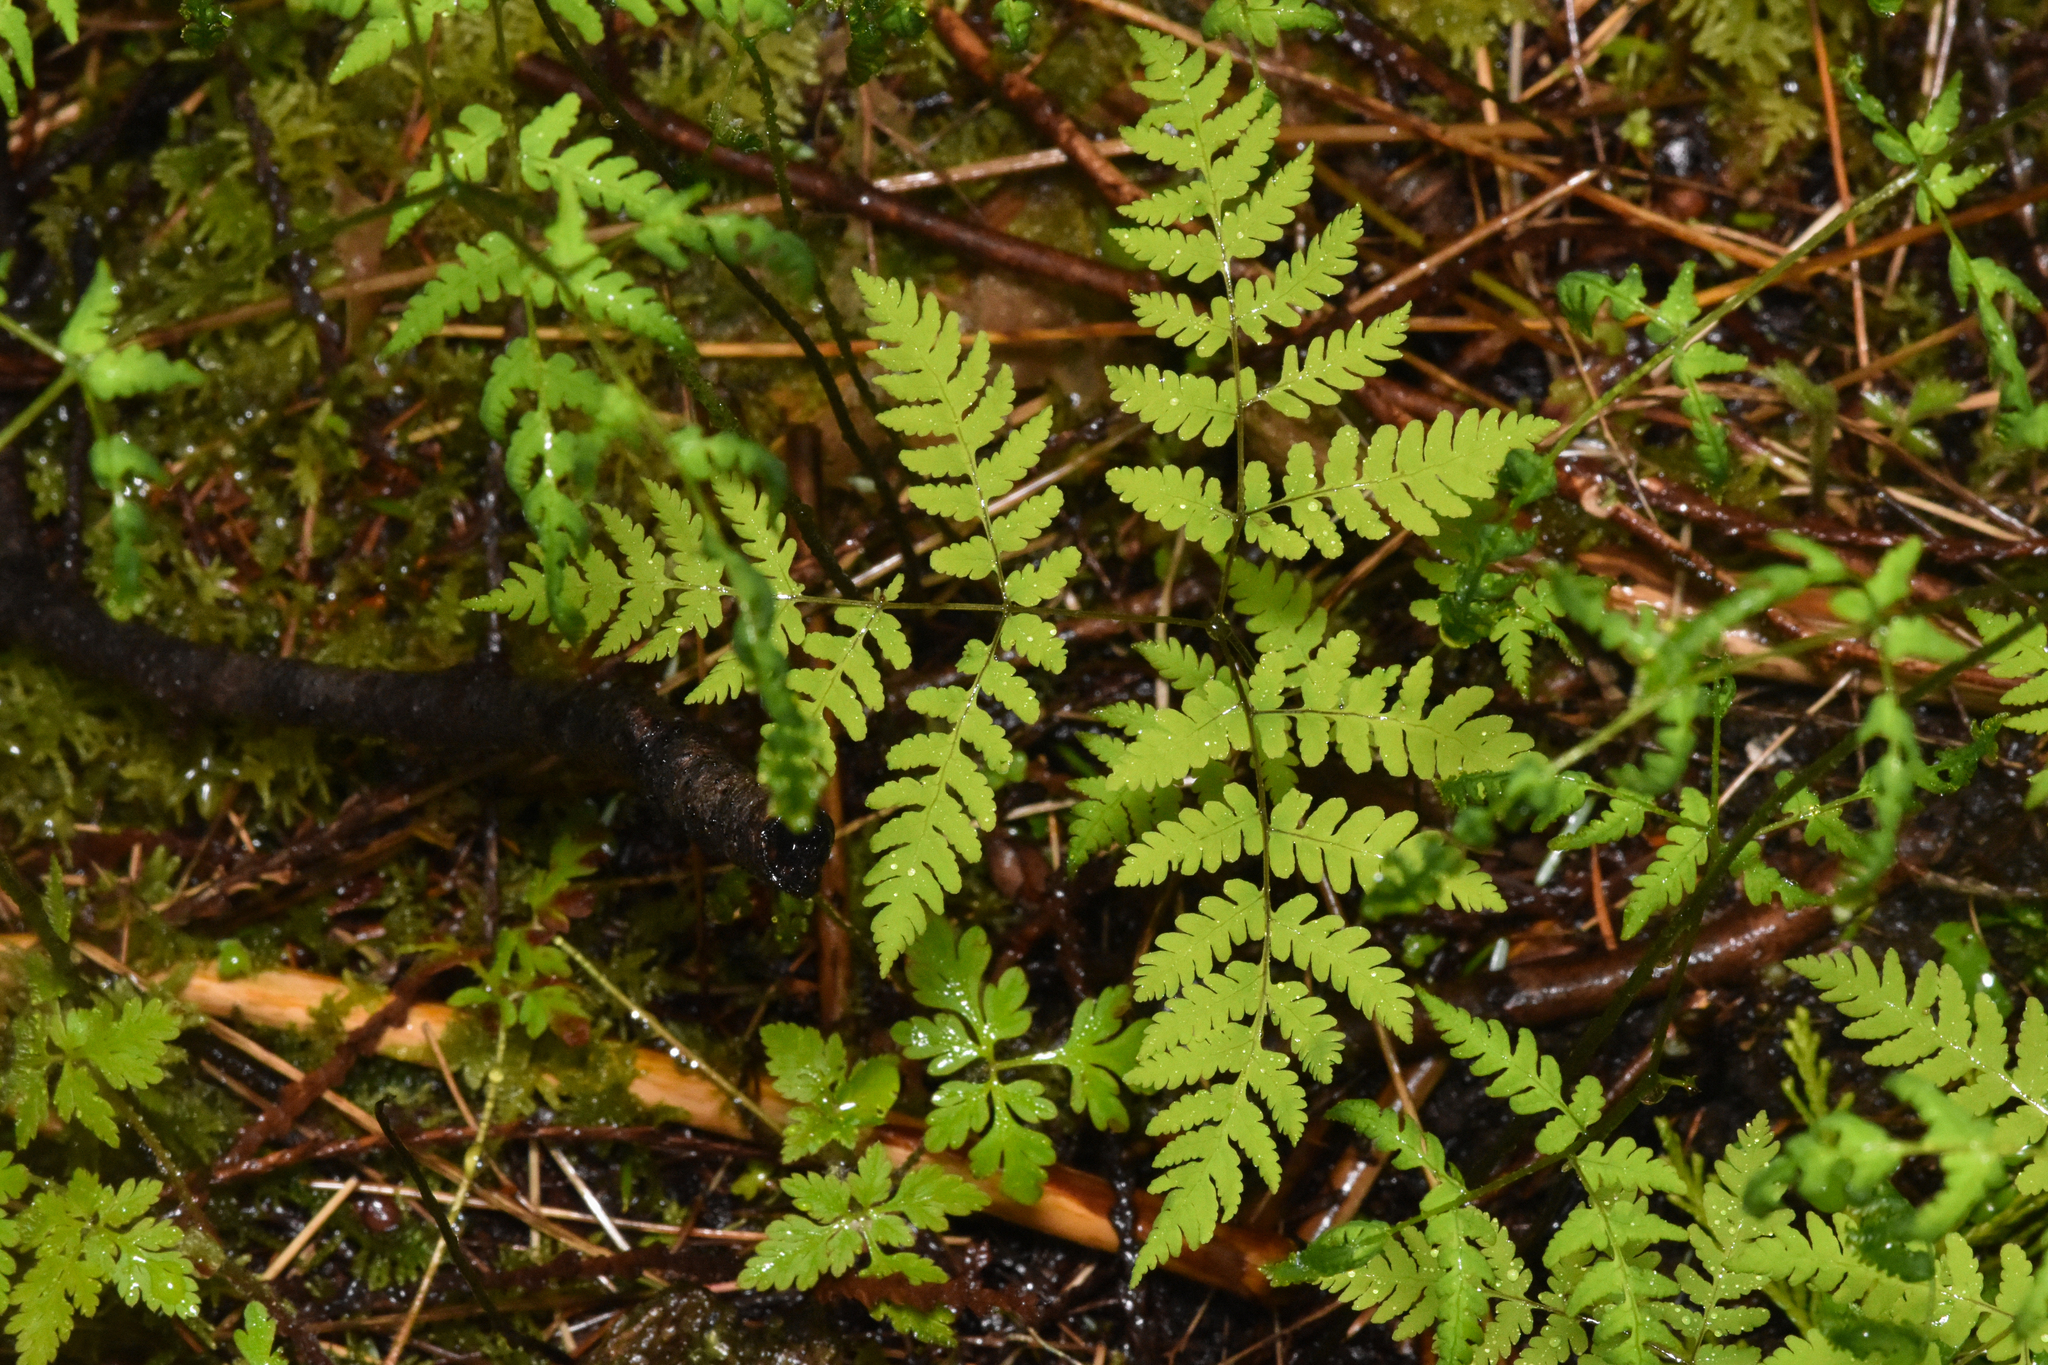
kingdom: Plantae
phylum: Tracheophyta
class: Polypodiopsida
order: Polypodiales
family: Cystopteridaceae
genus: Gymnocarpium
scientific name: Gymnocarpium disjunctum
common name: Western oak fern
